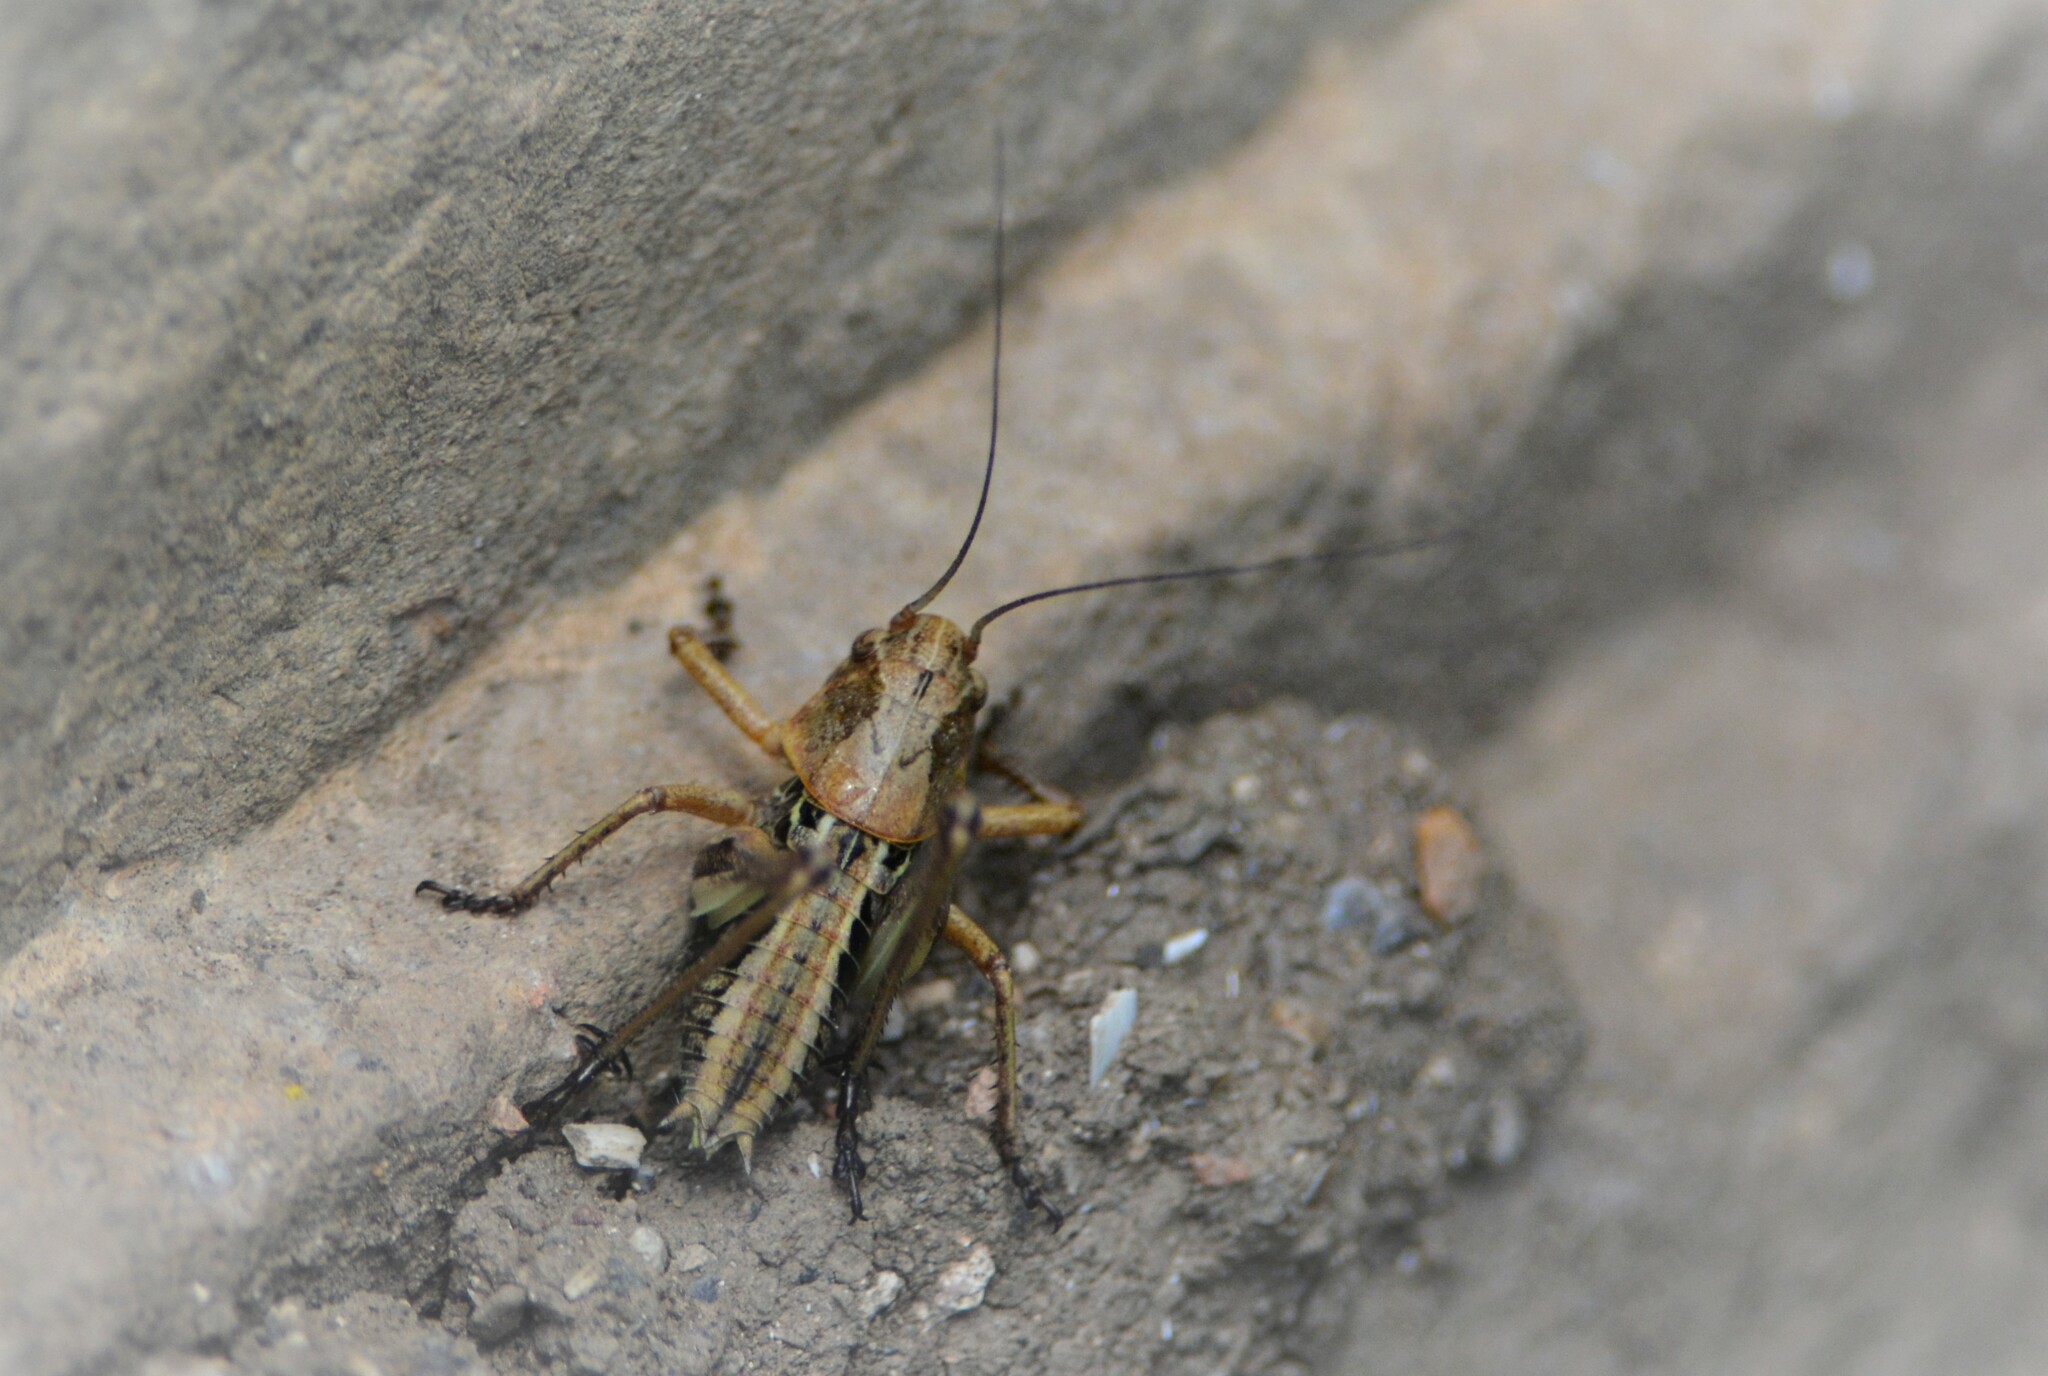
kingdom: Animalia
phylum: Arthropoda
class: Insecta
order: Orthoptera
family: Tettigoniidae
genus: Decticus
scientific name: Decticus albifrons
